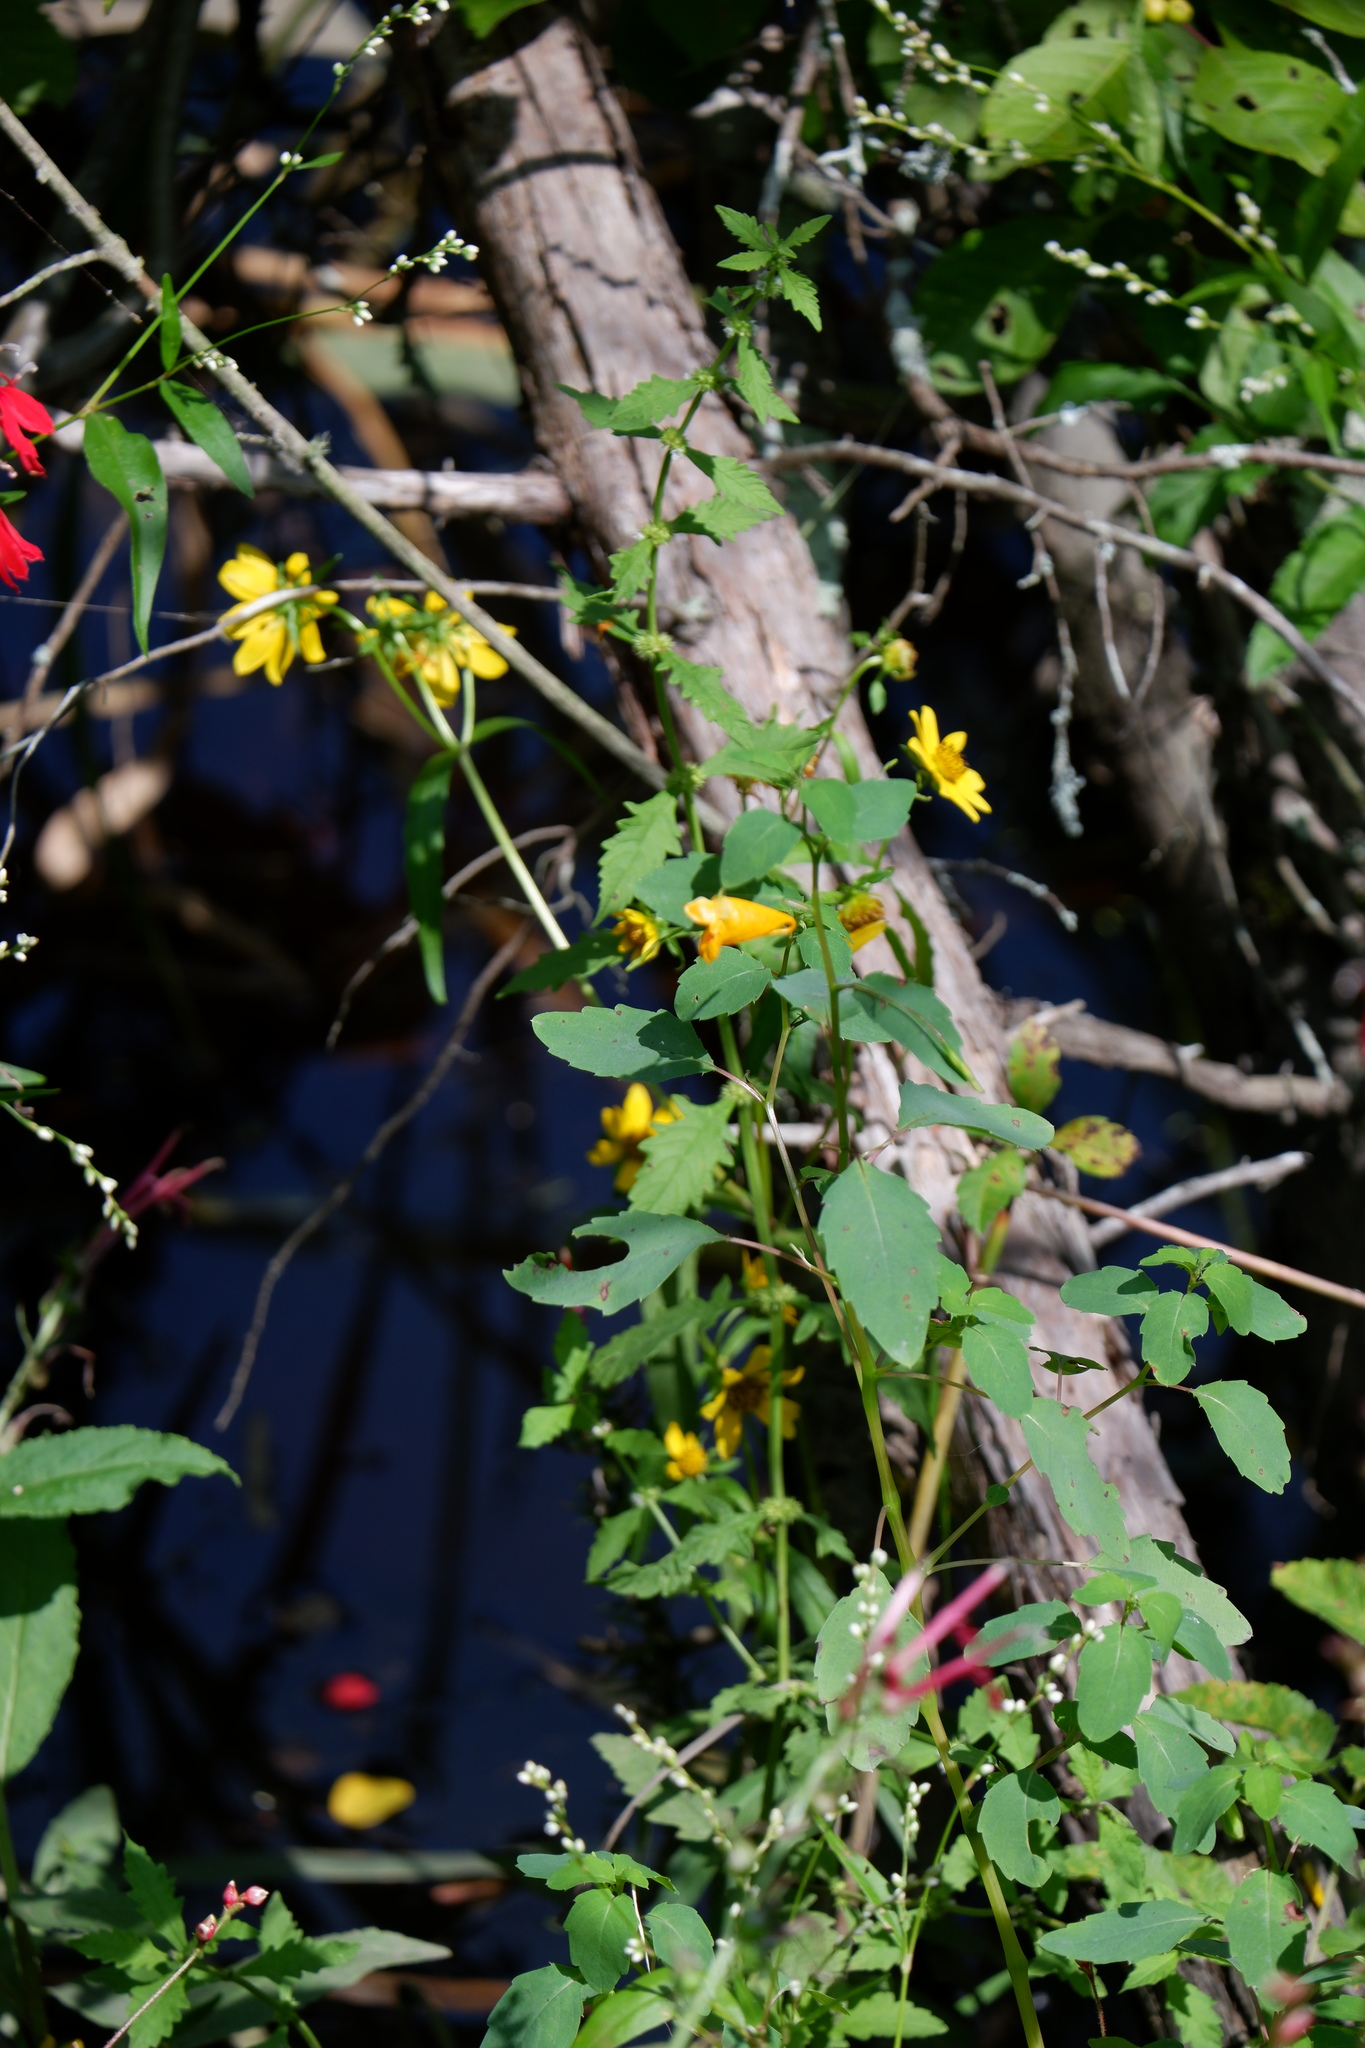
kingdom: Plantae
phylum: Tracheophyta
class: Magnoliopsida
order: Ericales
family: Balsaminaceae
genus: Impatiens
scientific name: Impatiens capensis
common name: Orange balsam
